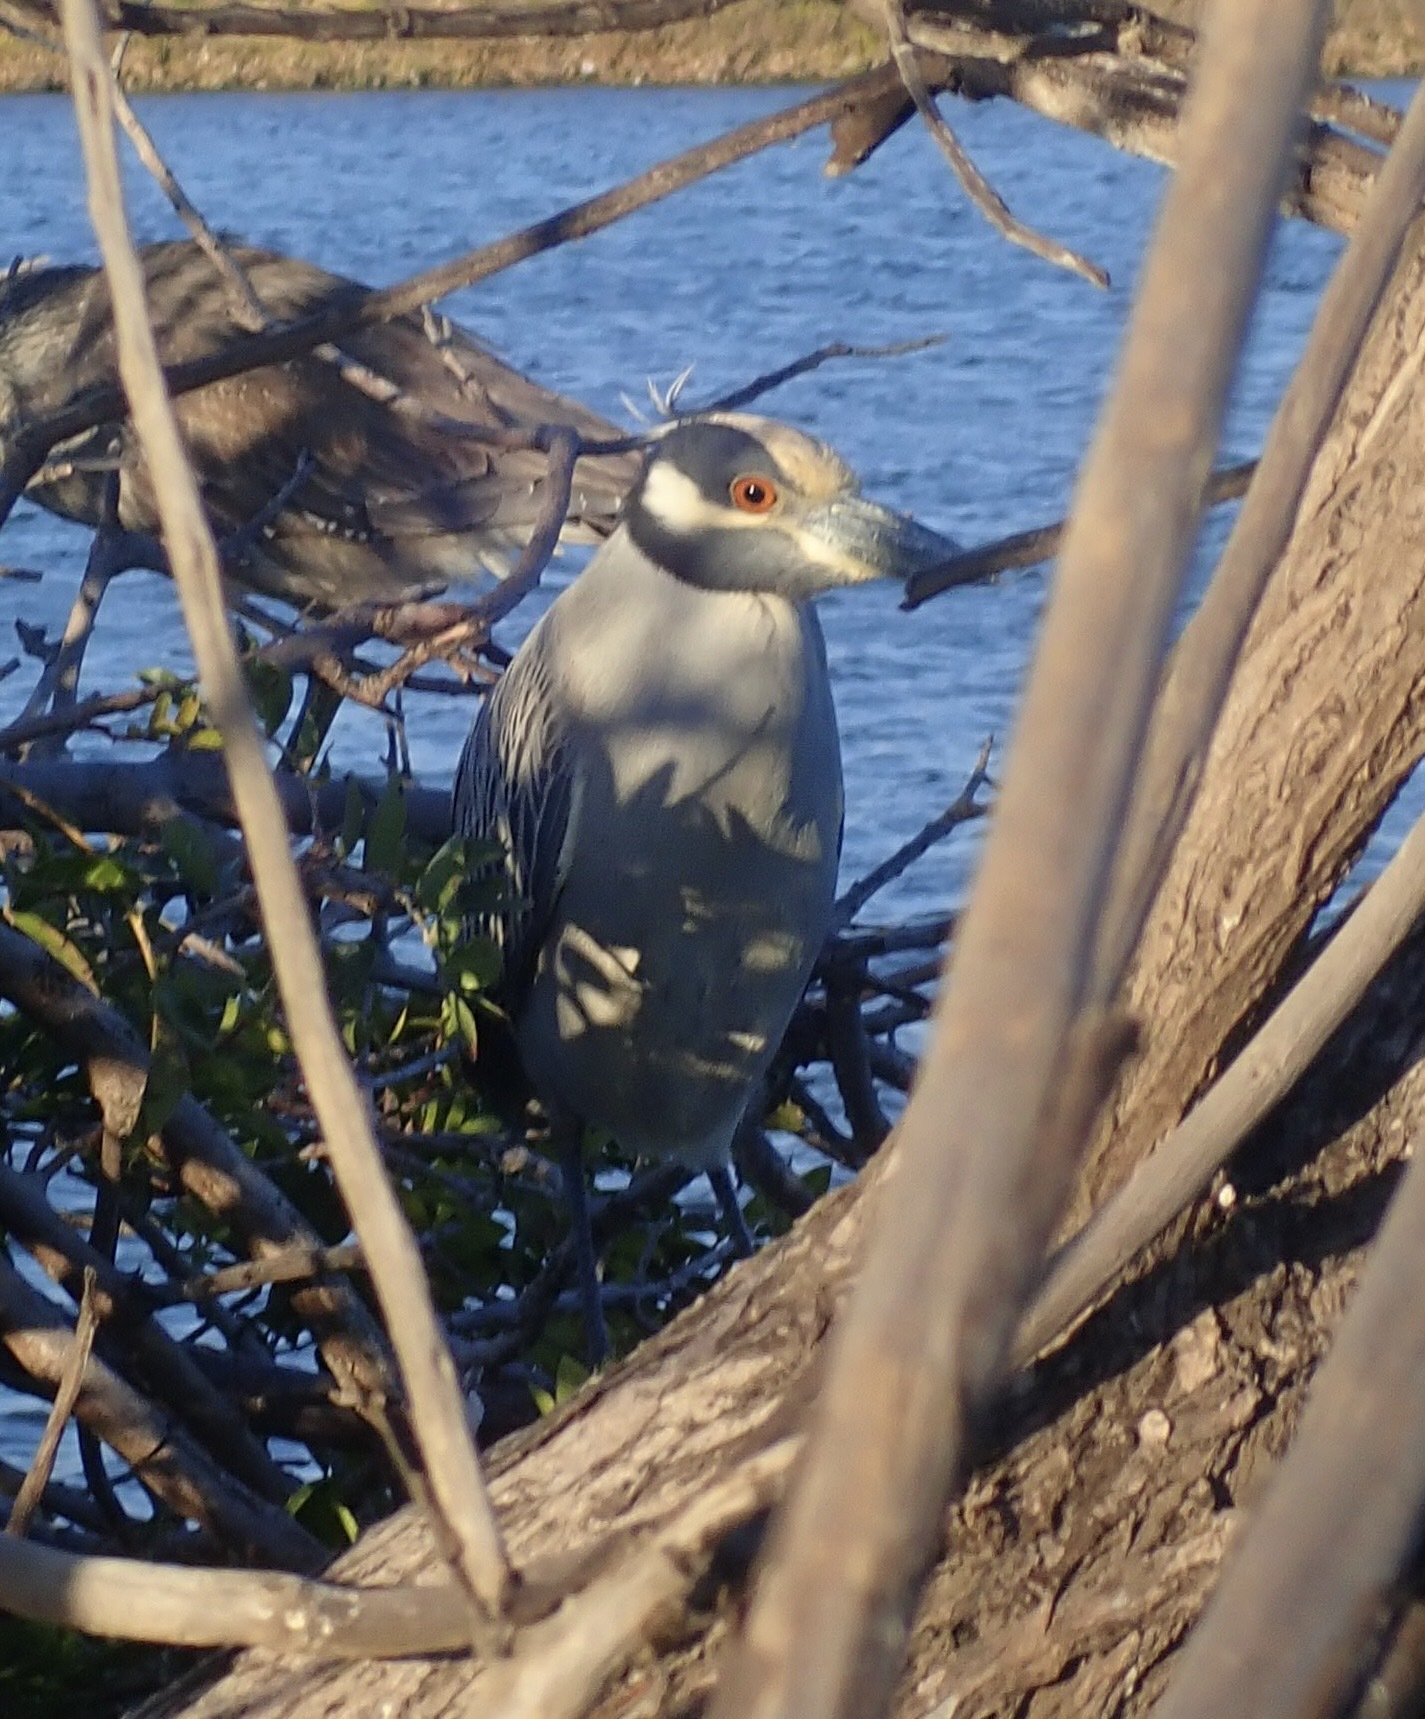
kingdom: Animalia
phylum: Chordata
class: Aves
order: Pelecaniformes
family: Ardeidae
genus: Nyctanassa
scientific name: Nyctanassa violacea
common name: Yellow-crowned night heron
